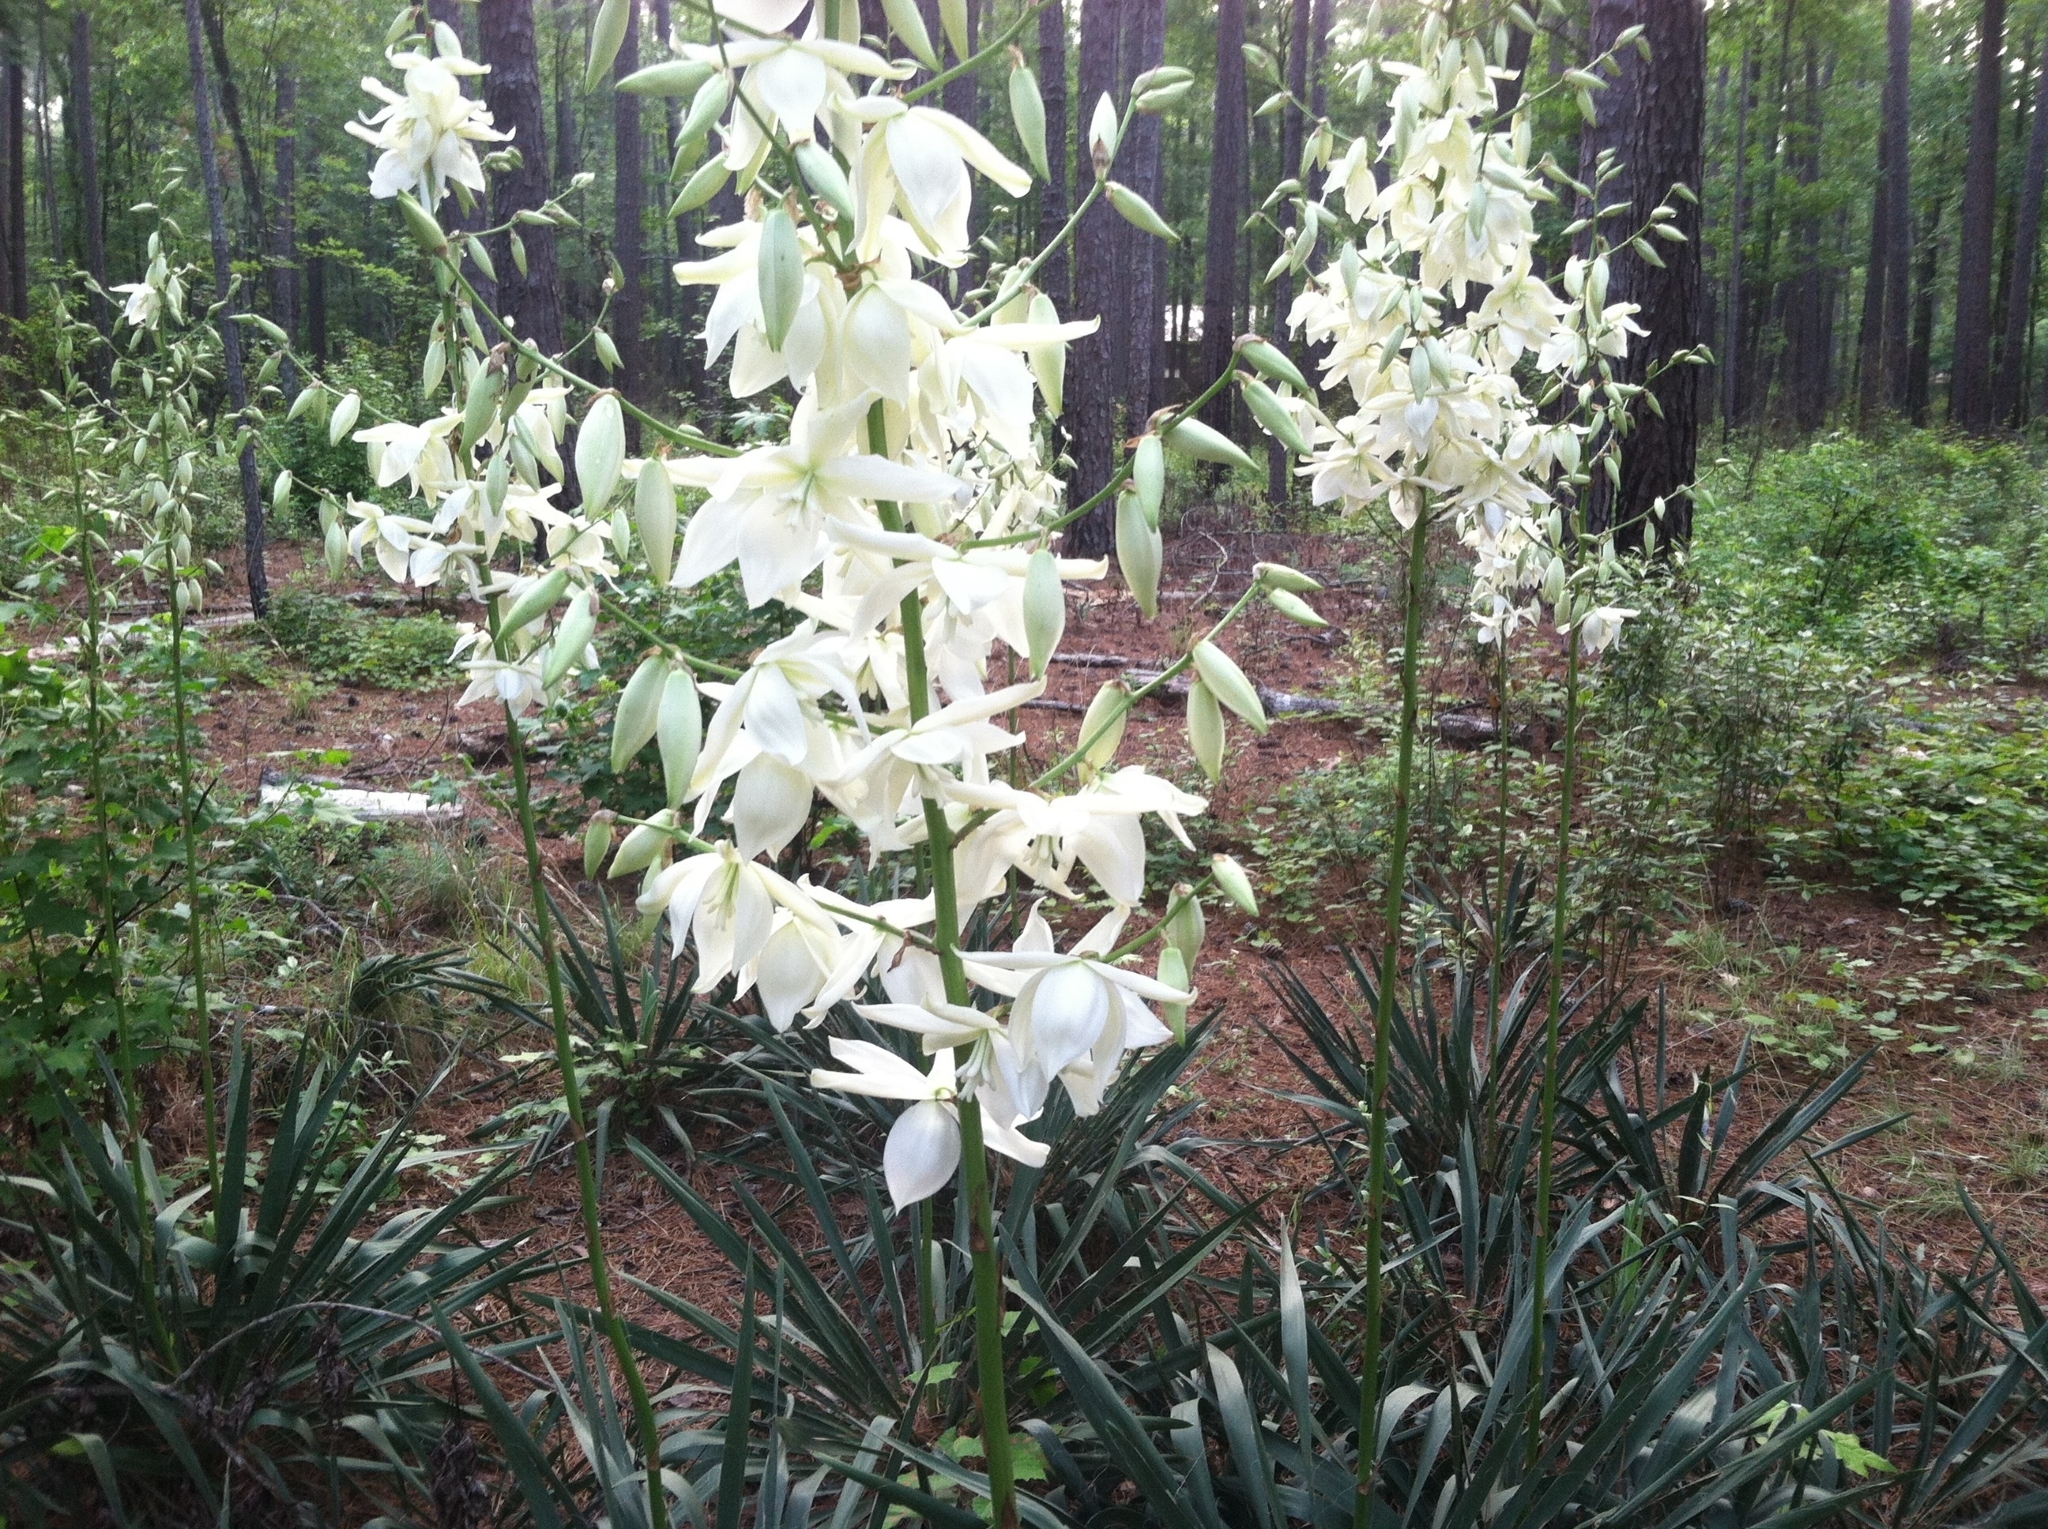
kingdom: Plantae
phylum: Tracheophyta
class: Liliopsida
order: Asparagales
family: Asparagaceae
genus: Yucca
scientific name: Yucca filamentosa
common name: Adam's-needle
